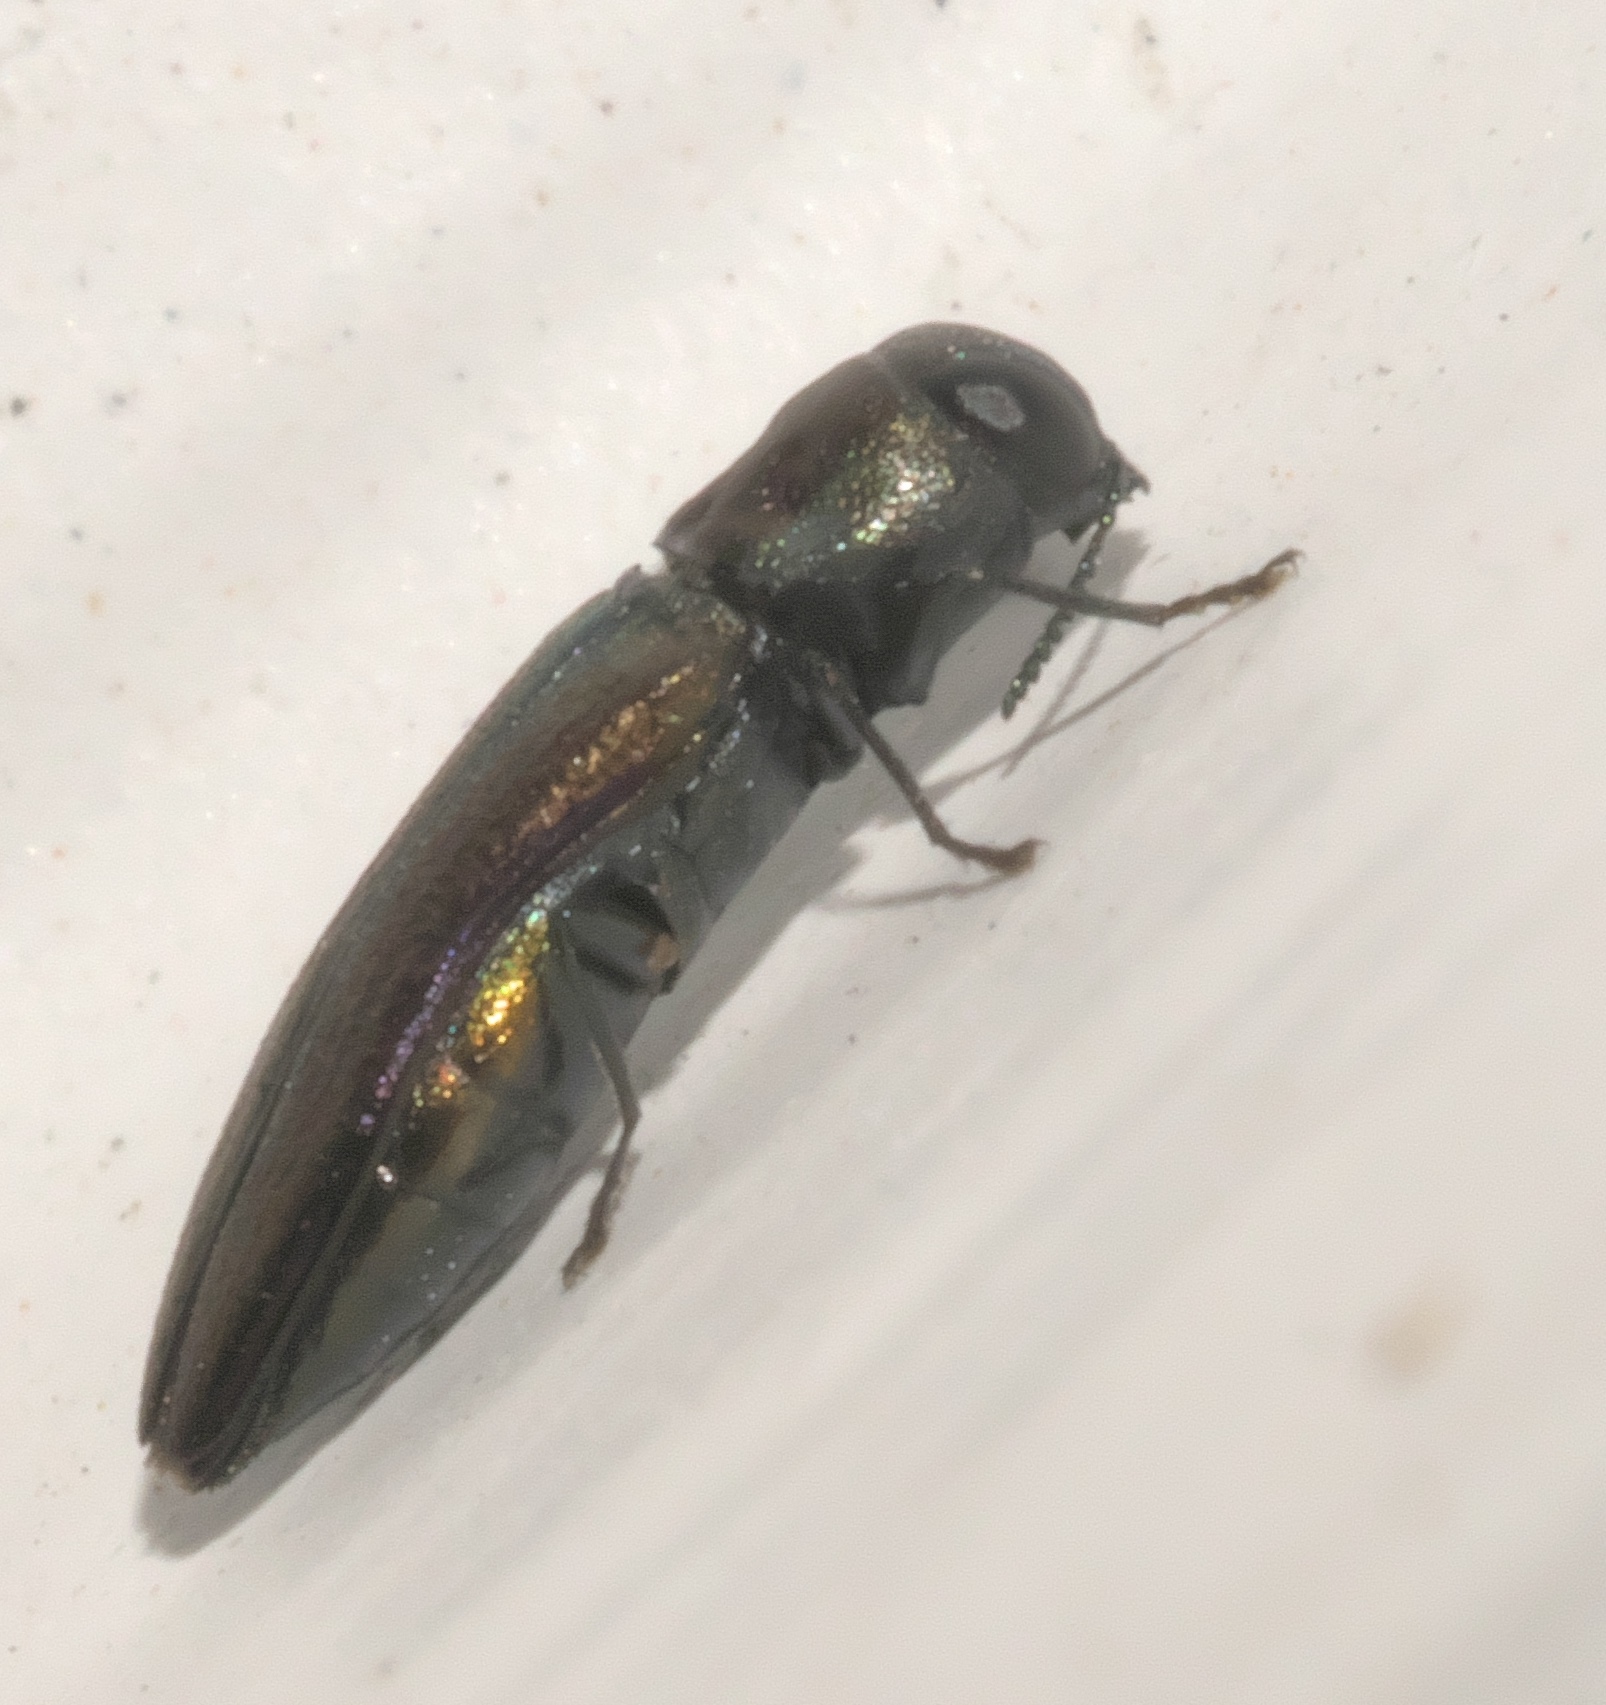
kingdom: Animalia
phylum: Arthropoda
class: Insecta
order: Coleoptera
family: Buprestidae
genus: Agrilaxia
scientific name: Agrilaxia flavimana
